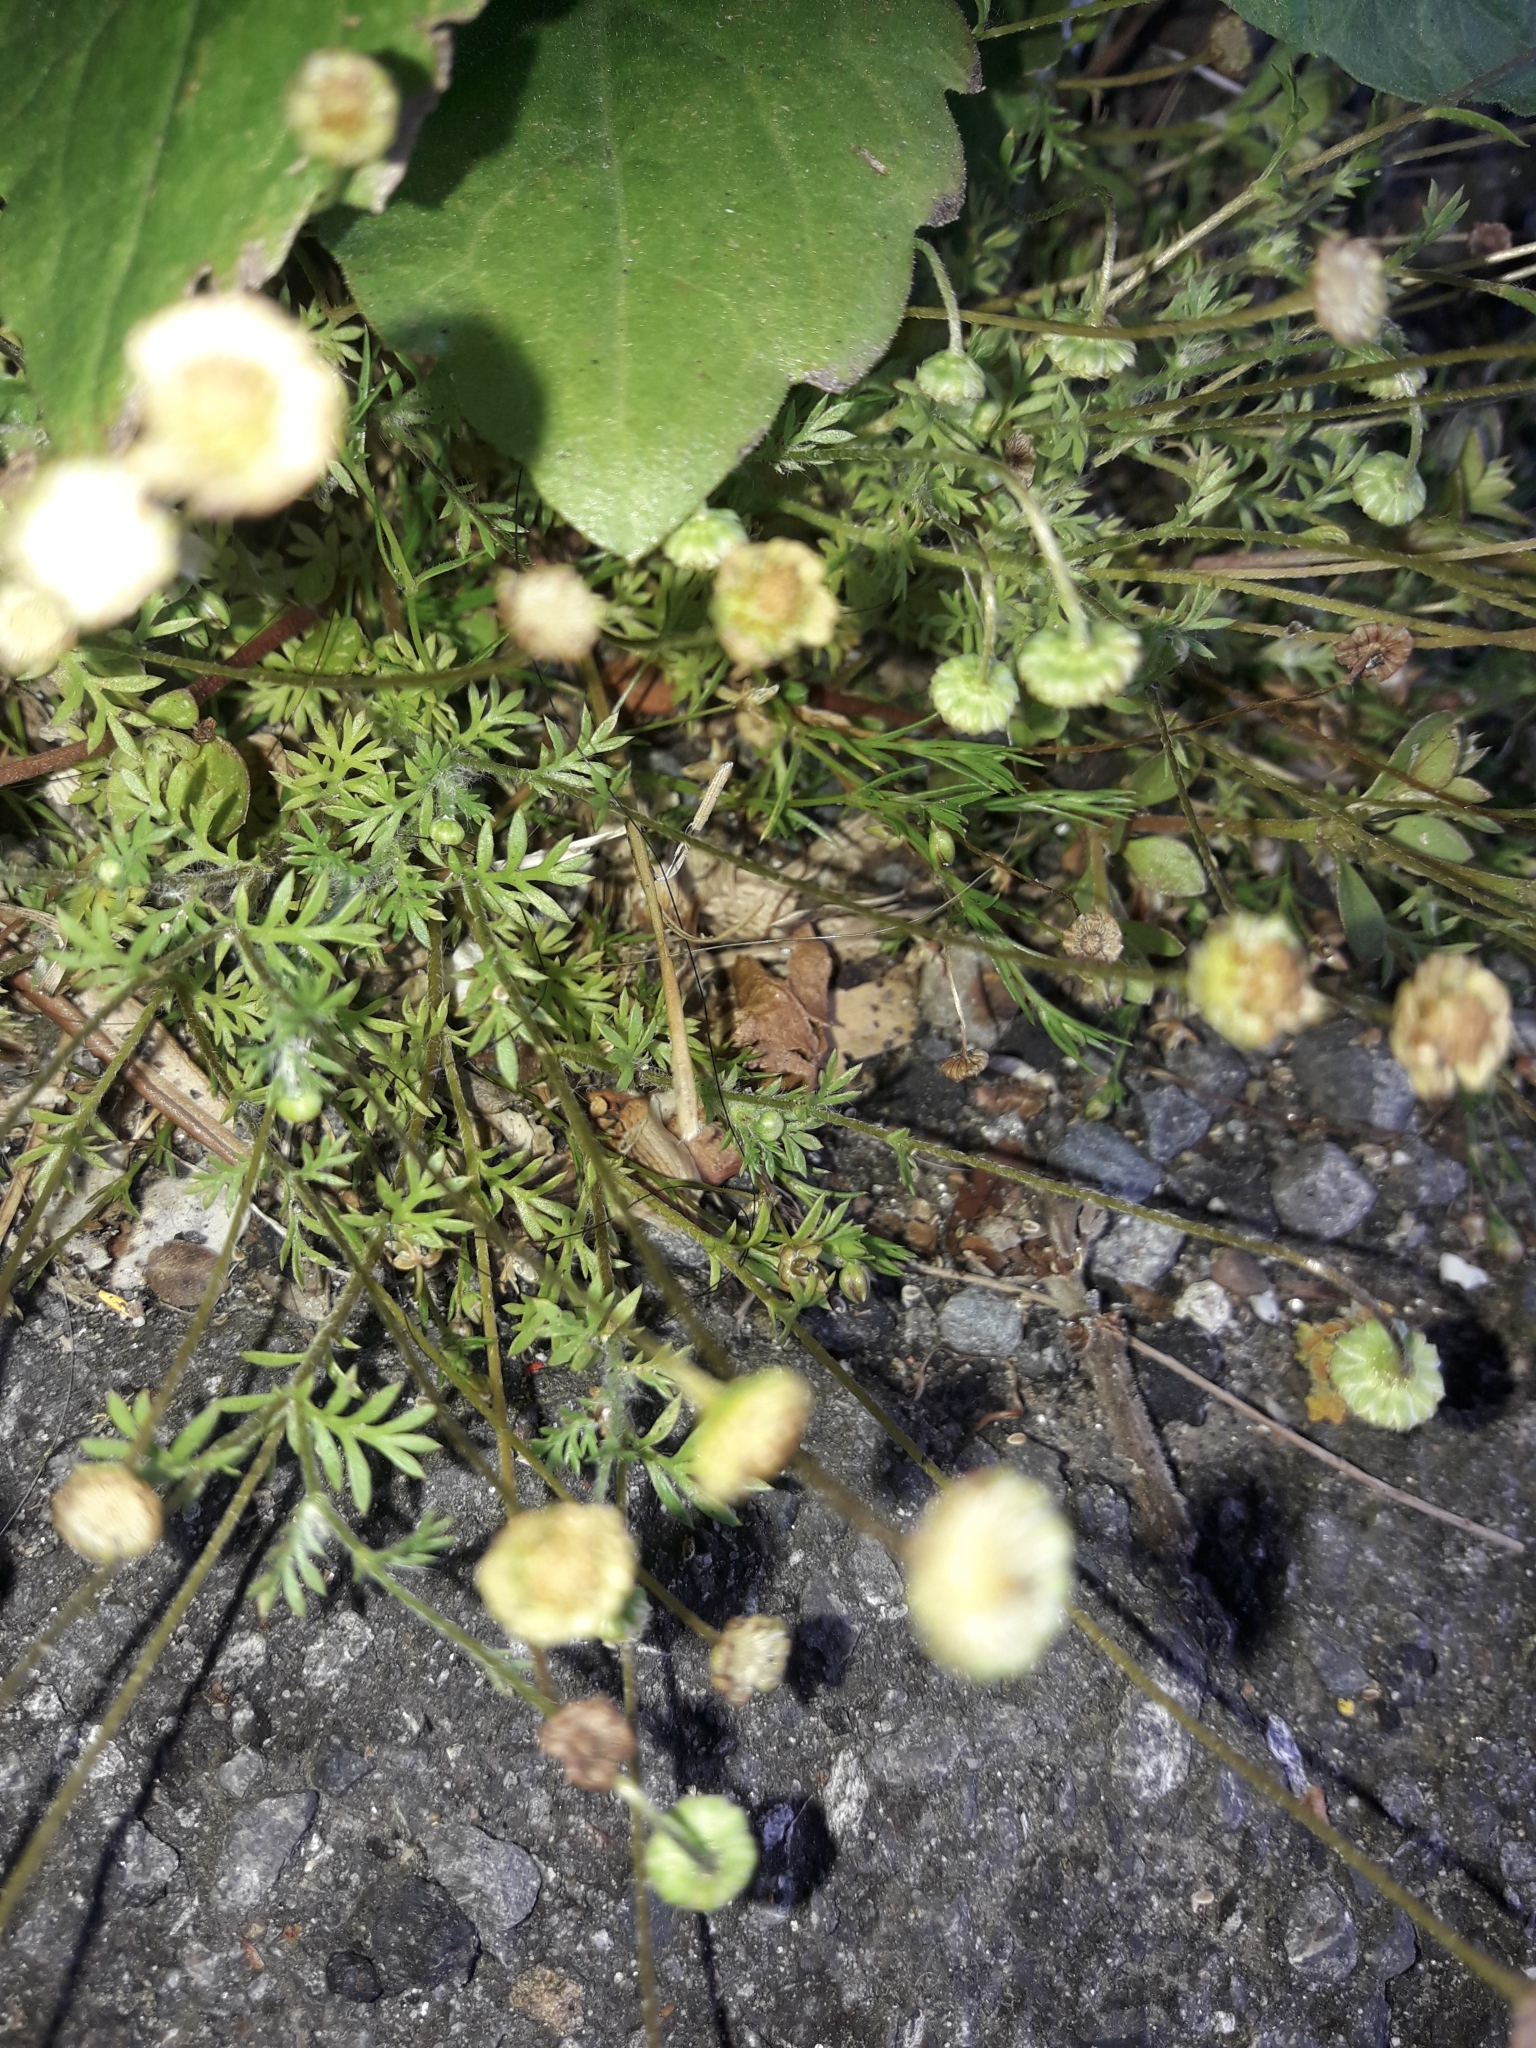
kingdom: Plantae
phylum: Tracheophyta
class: Magnoliopsida
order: Asterales
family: Asteraceae
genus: Cotula
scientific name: Cotula australis
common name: Australian waterbuttons
